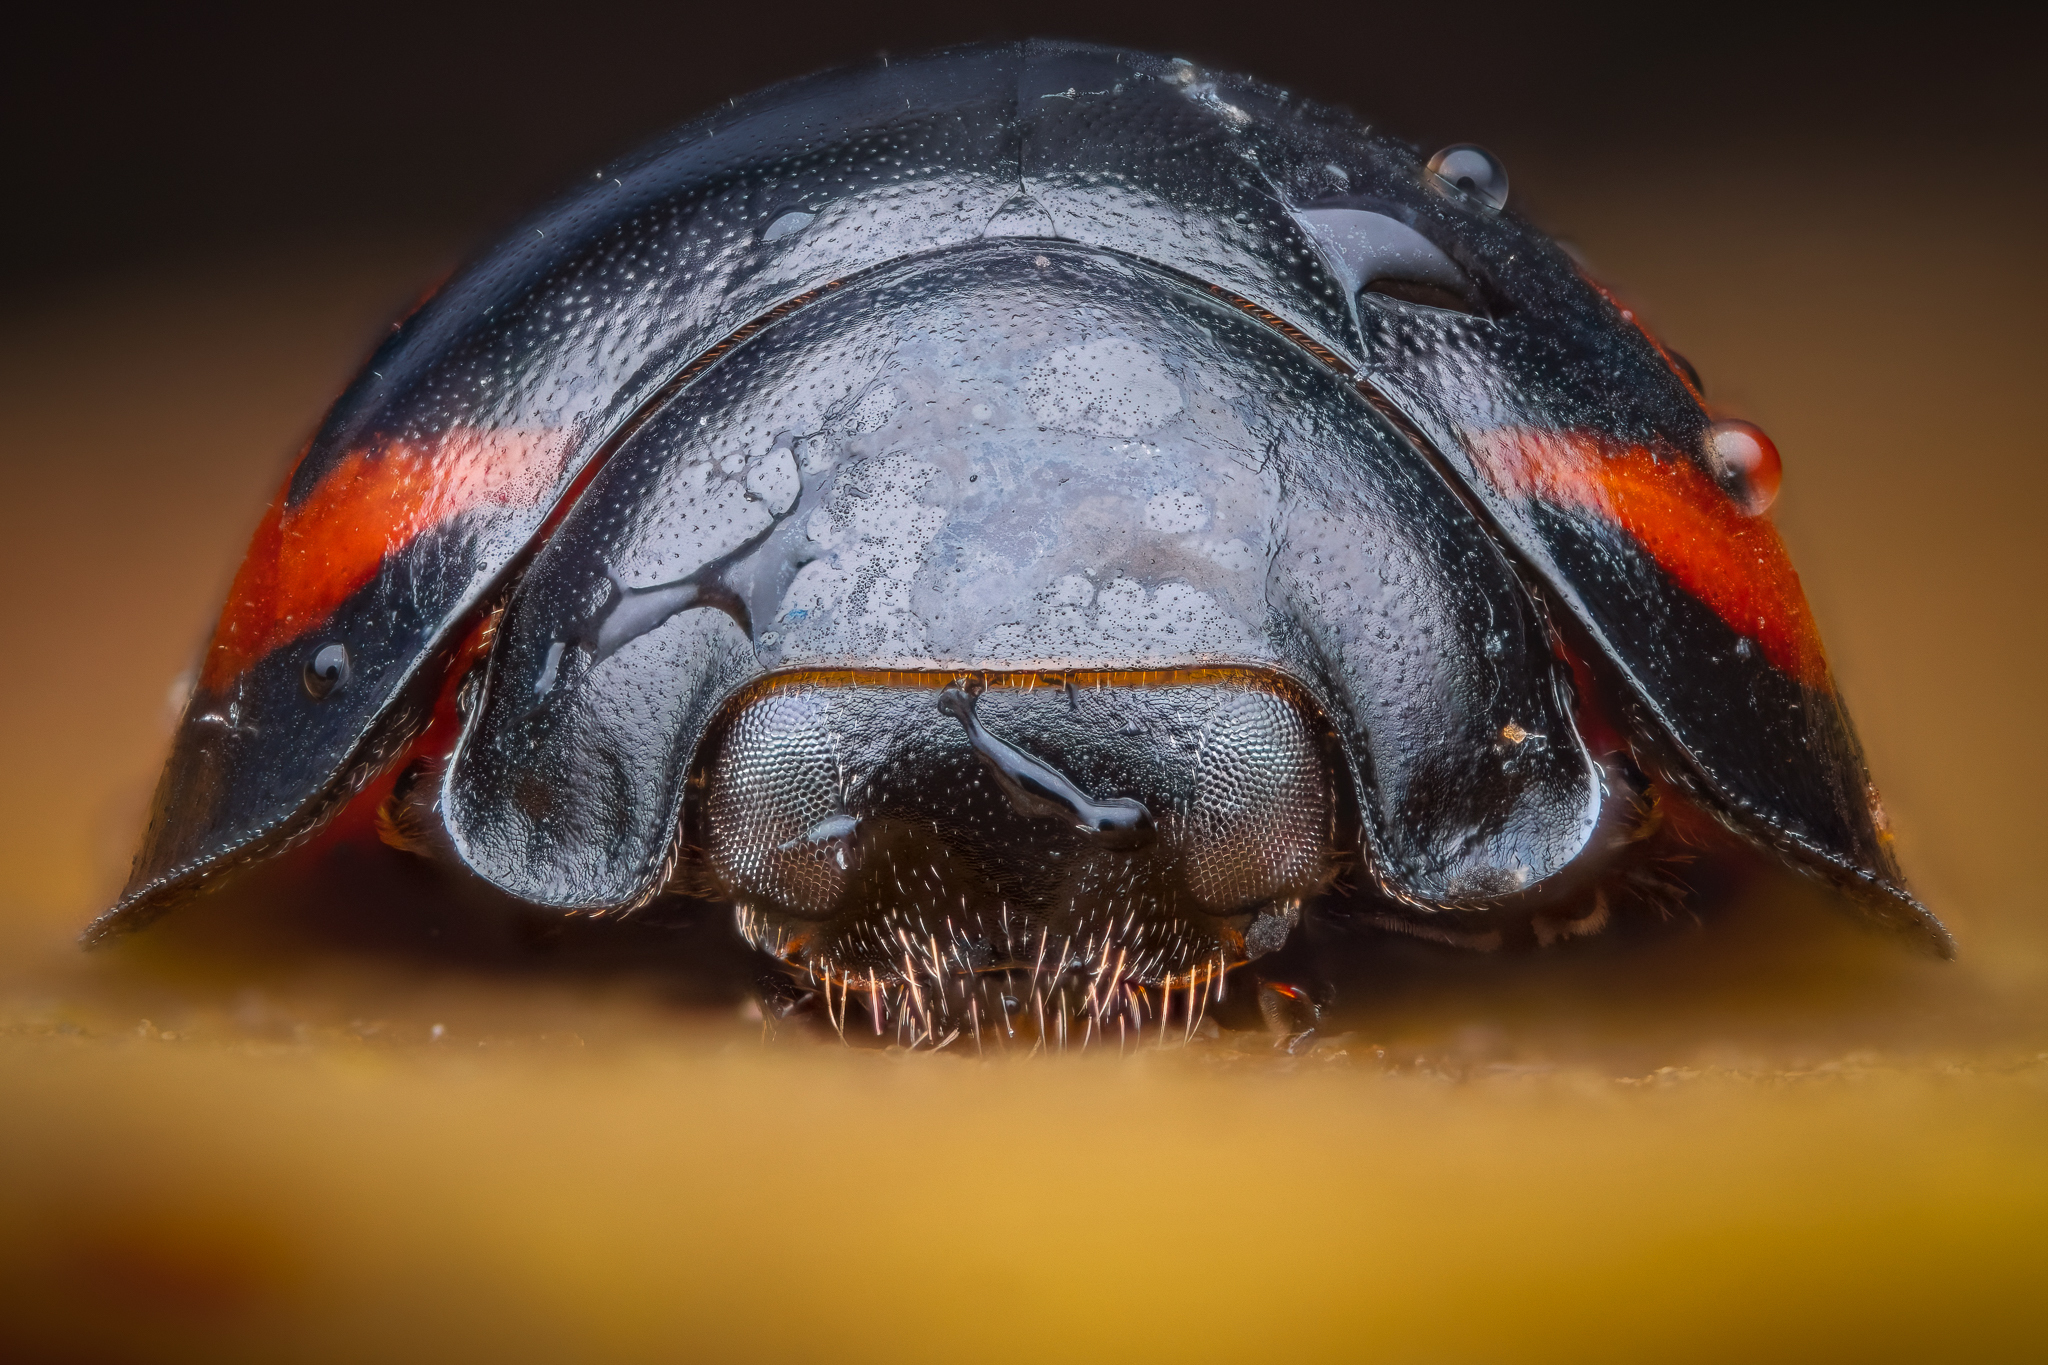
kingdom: Animalia
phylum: Arthropoda
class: Insecta
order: Coleoptera
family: Coccinellidae
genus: Brumus
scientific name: Brumus quadripustulatus
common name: Ladybird beetle
